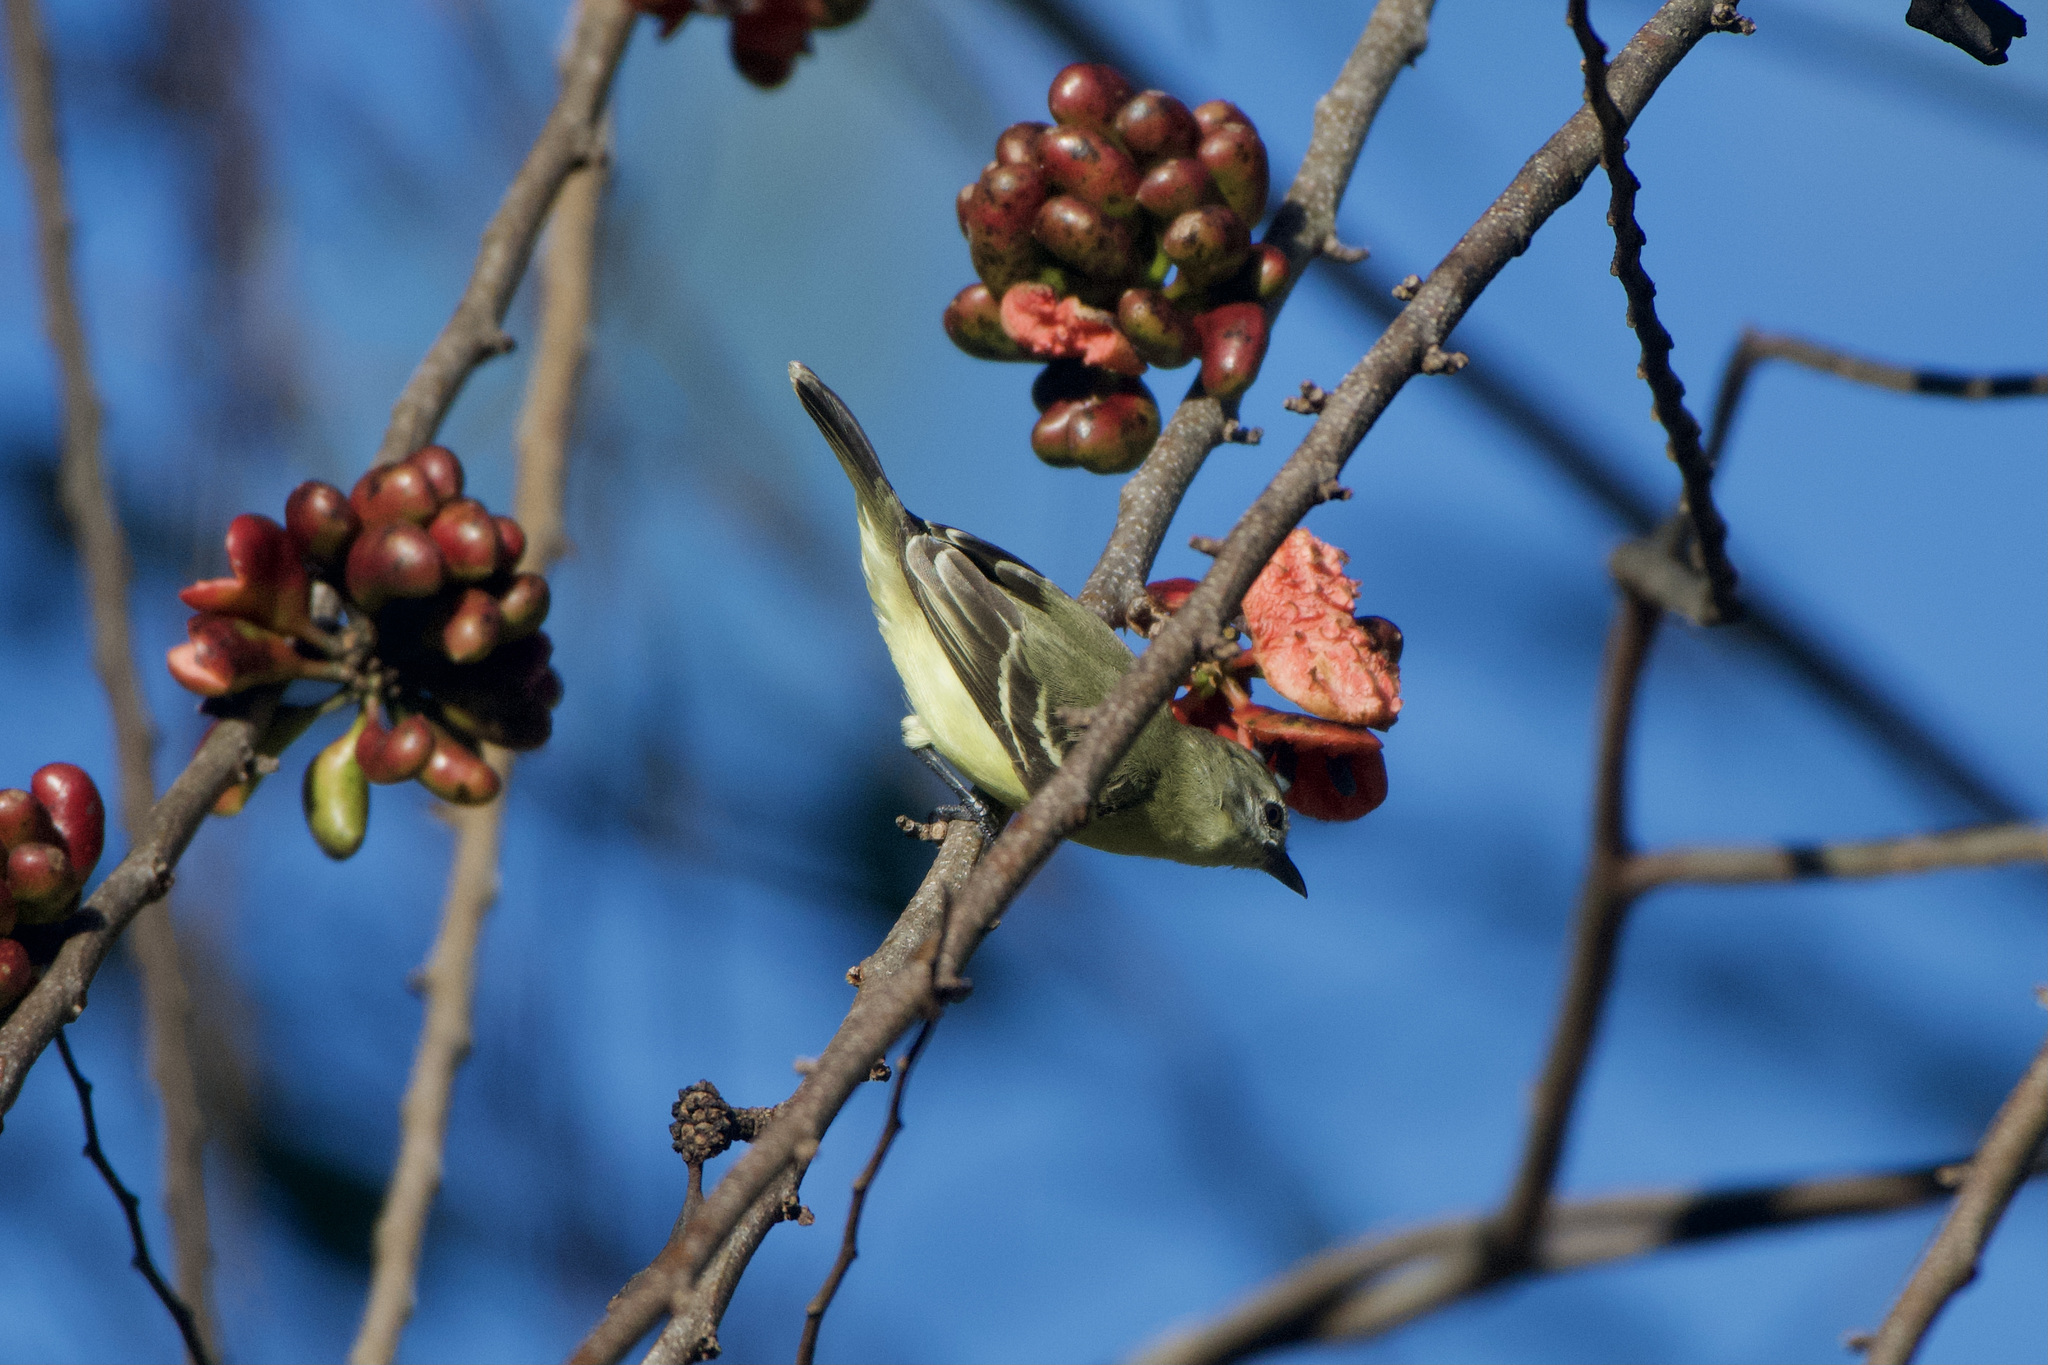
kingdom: Animalia
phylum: Chordata
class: Aves
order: Passeriformes
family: Tyrannidae
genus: Camptostoma
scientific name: Camptostoma obsoletum
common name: Southern beardless-tyrannulet
